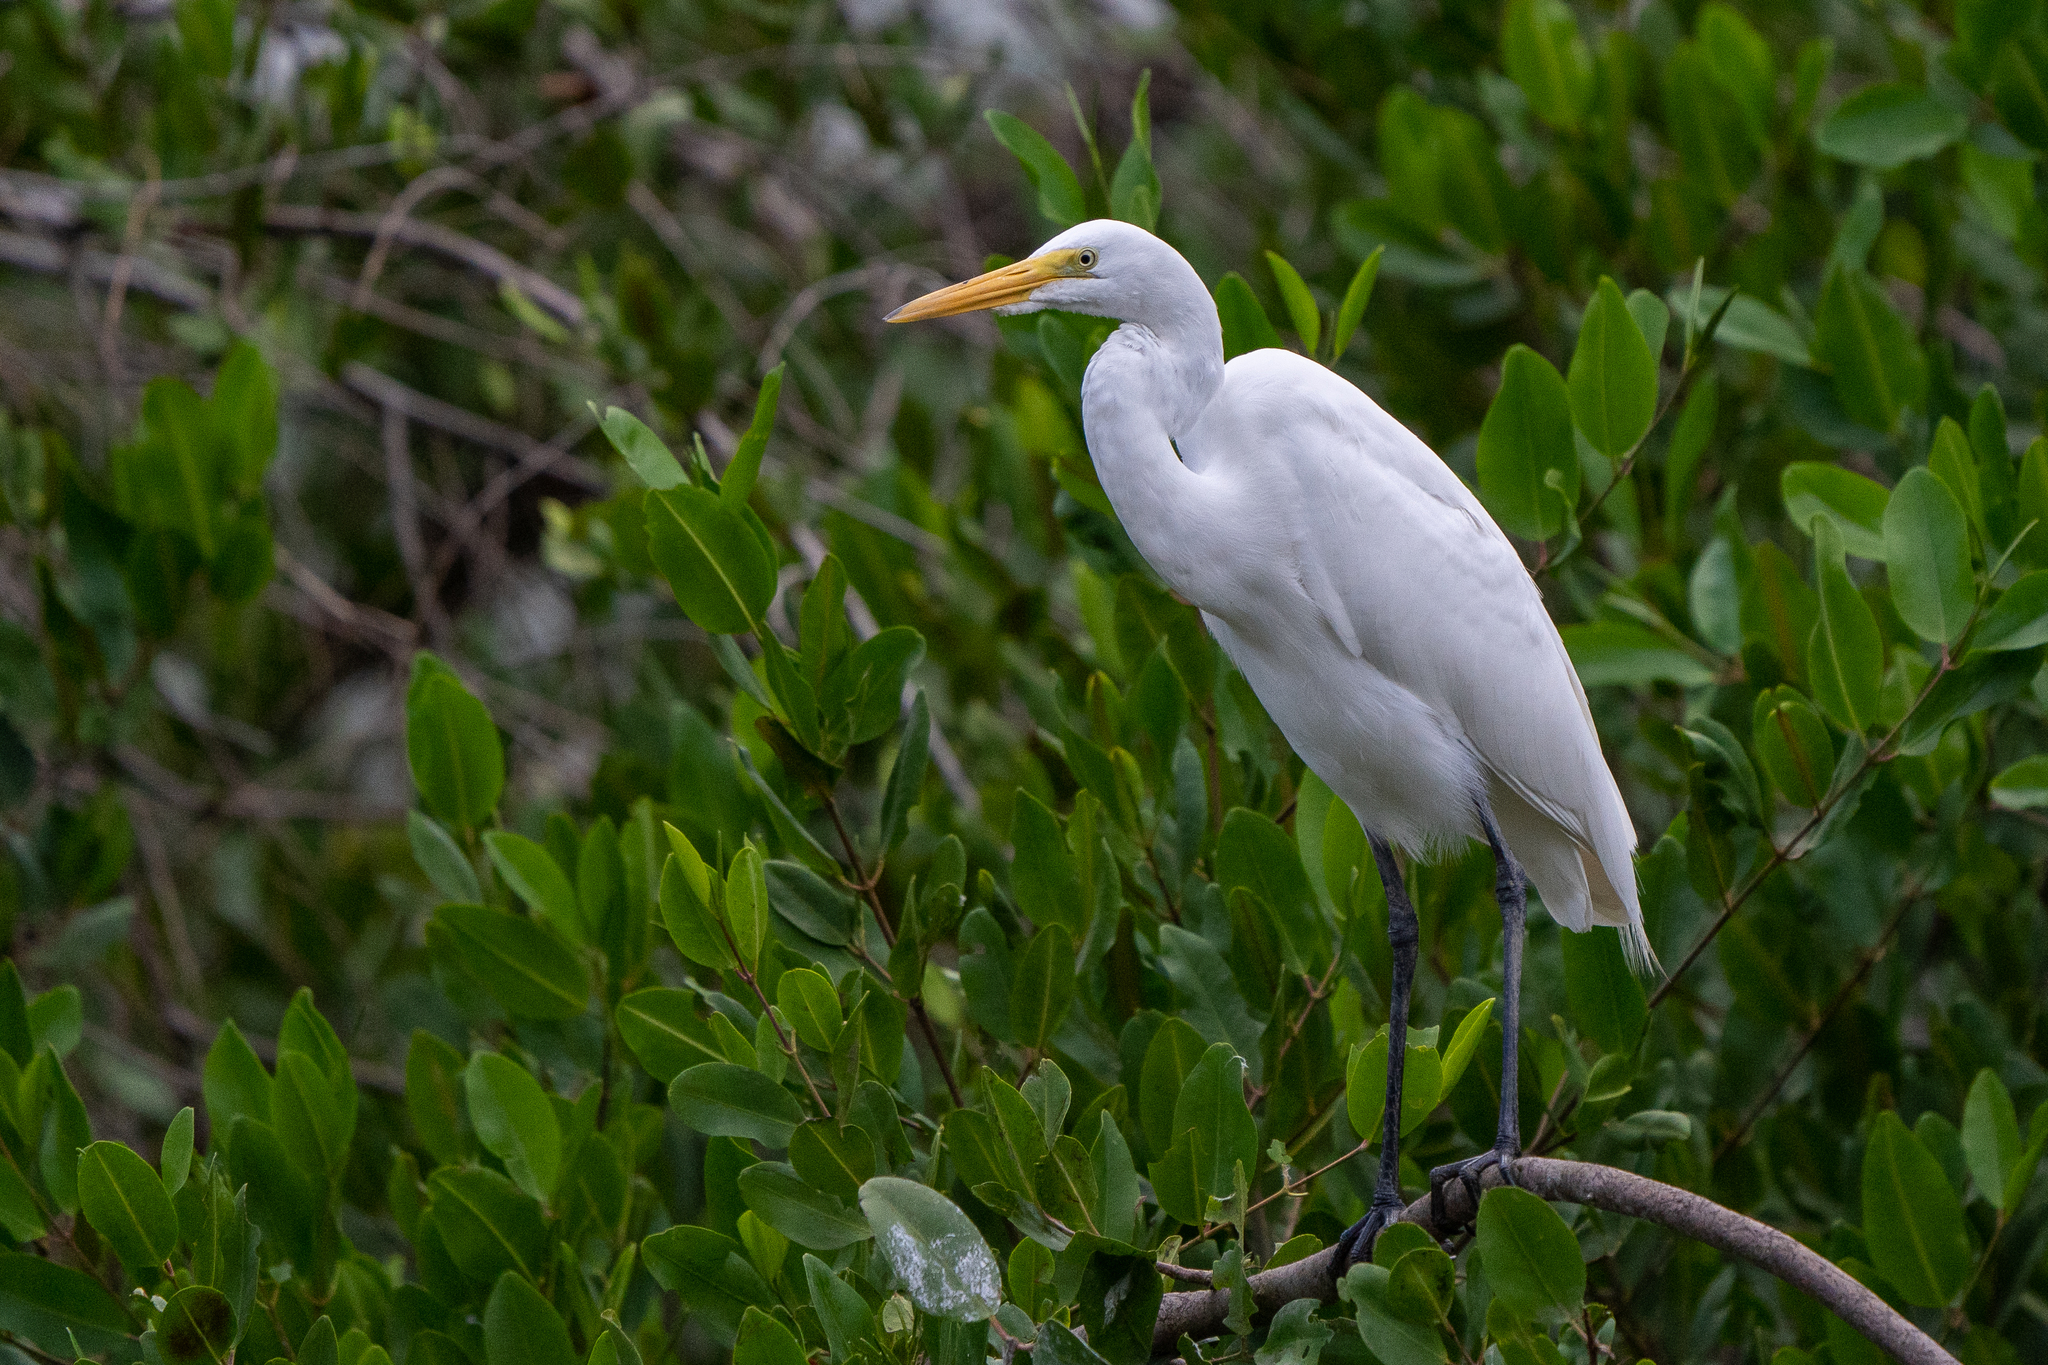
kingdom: Animalia
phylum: Chordata
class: Aves
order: Pelecaniformes
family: Ardeidae
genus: Ardea
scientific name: Ardea alba
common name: Great egret
